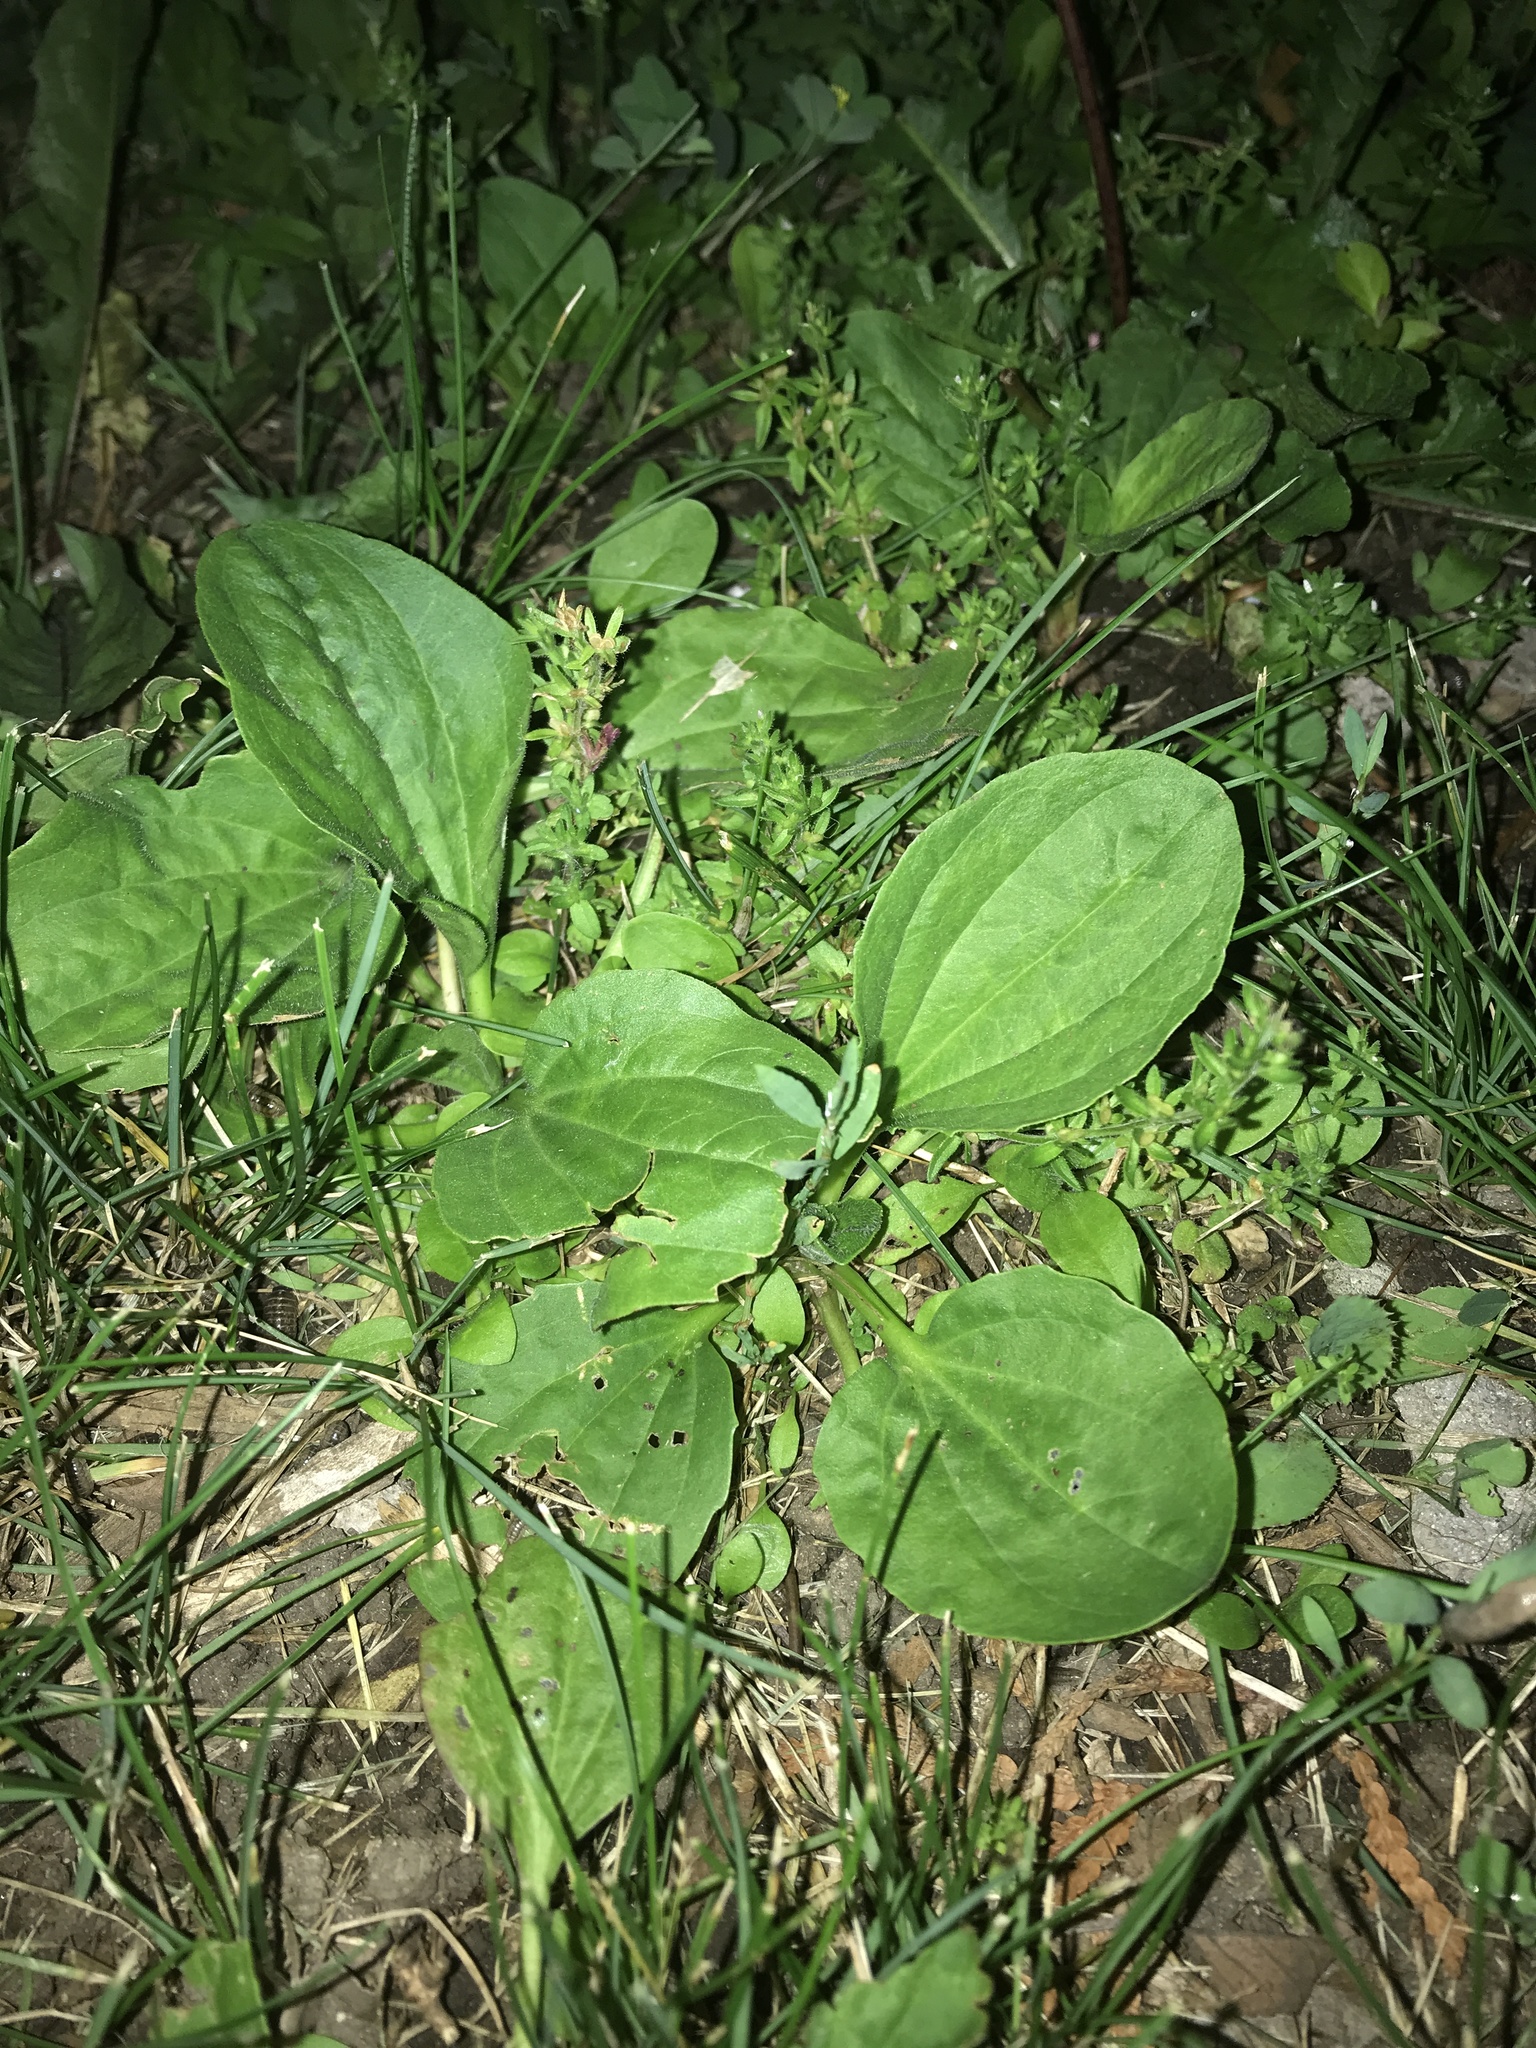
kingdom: Plantae
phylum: Tracheophyta
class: Magnoliopsida
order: Lamiales
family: Plantaginaceae
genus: Plantago
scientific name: Plantago major
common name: Common plantain
